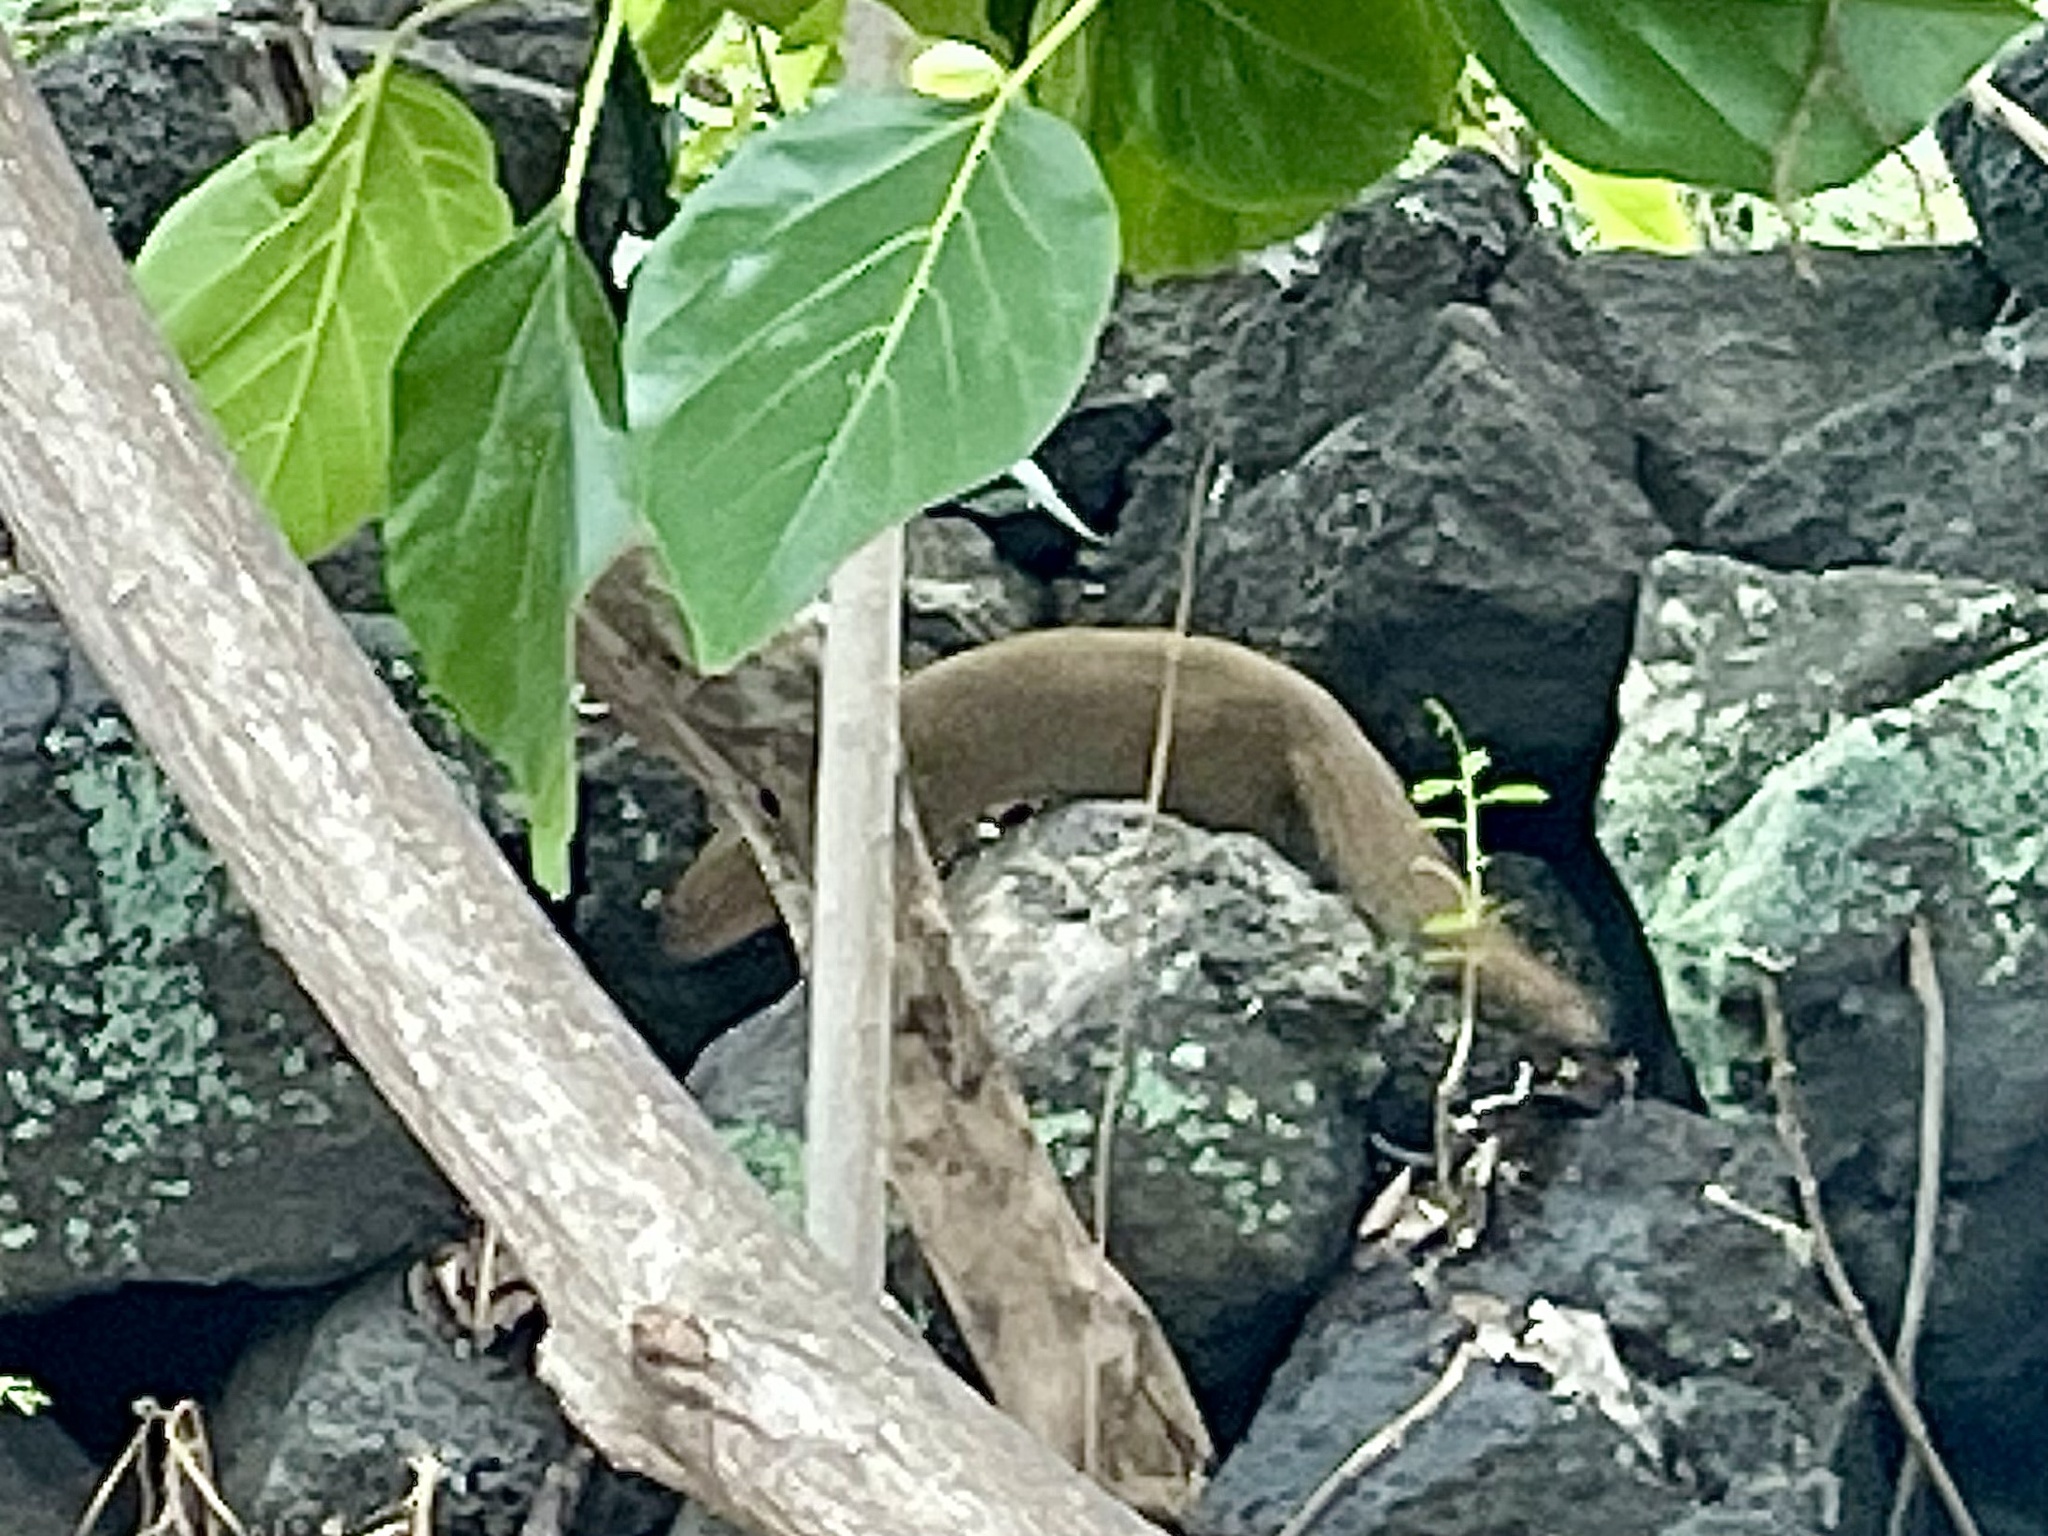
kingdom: Animalia
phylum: Chordata
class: Mammalia
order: Carnivora
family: Herpestidae
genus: Herpestes
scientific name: Herpestes javanicus
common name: Small asian mongoose
